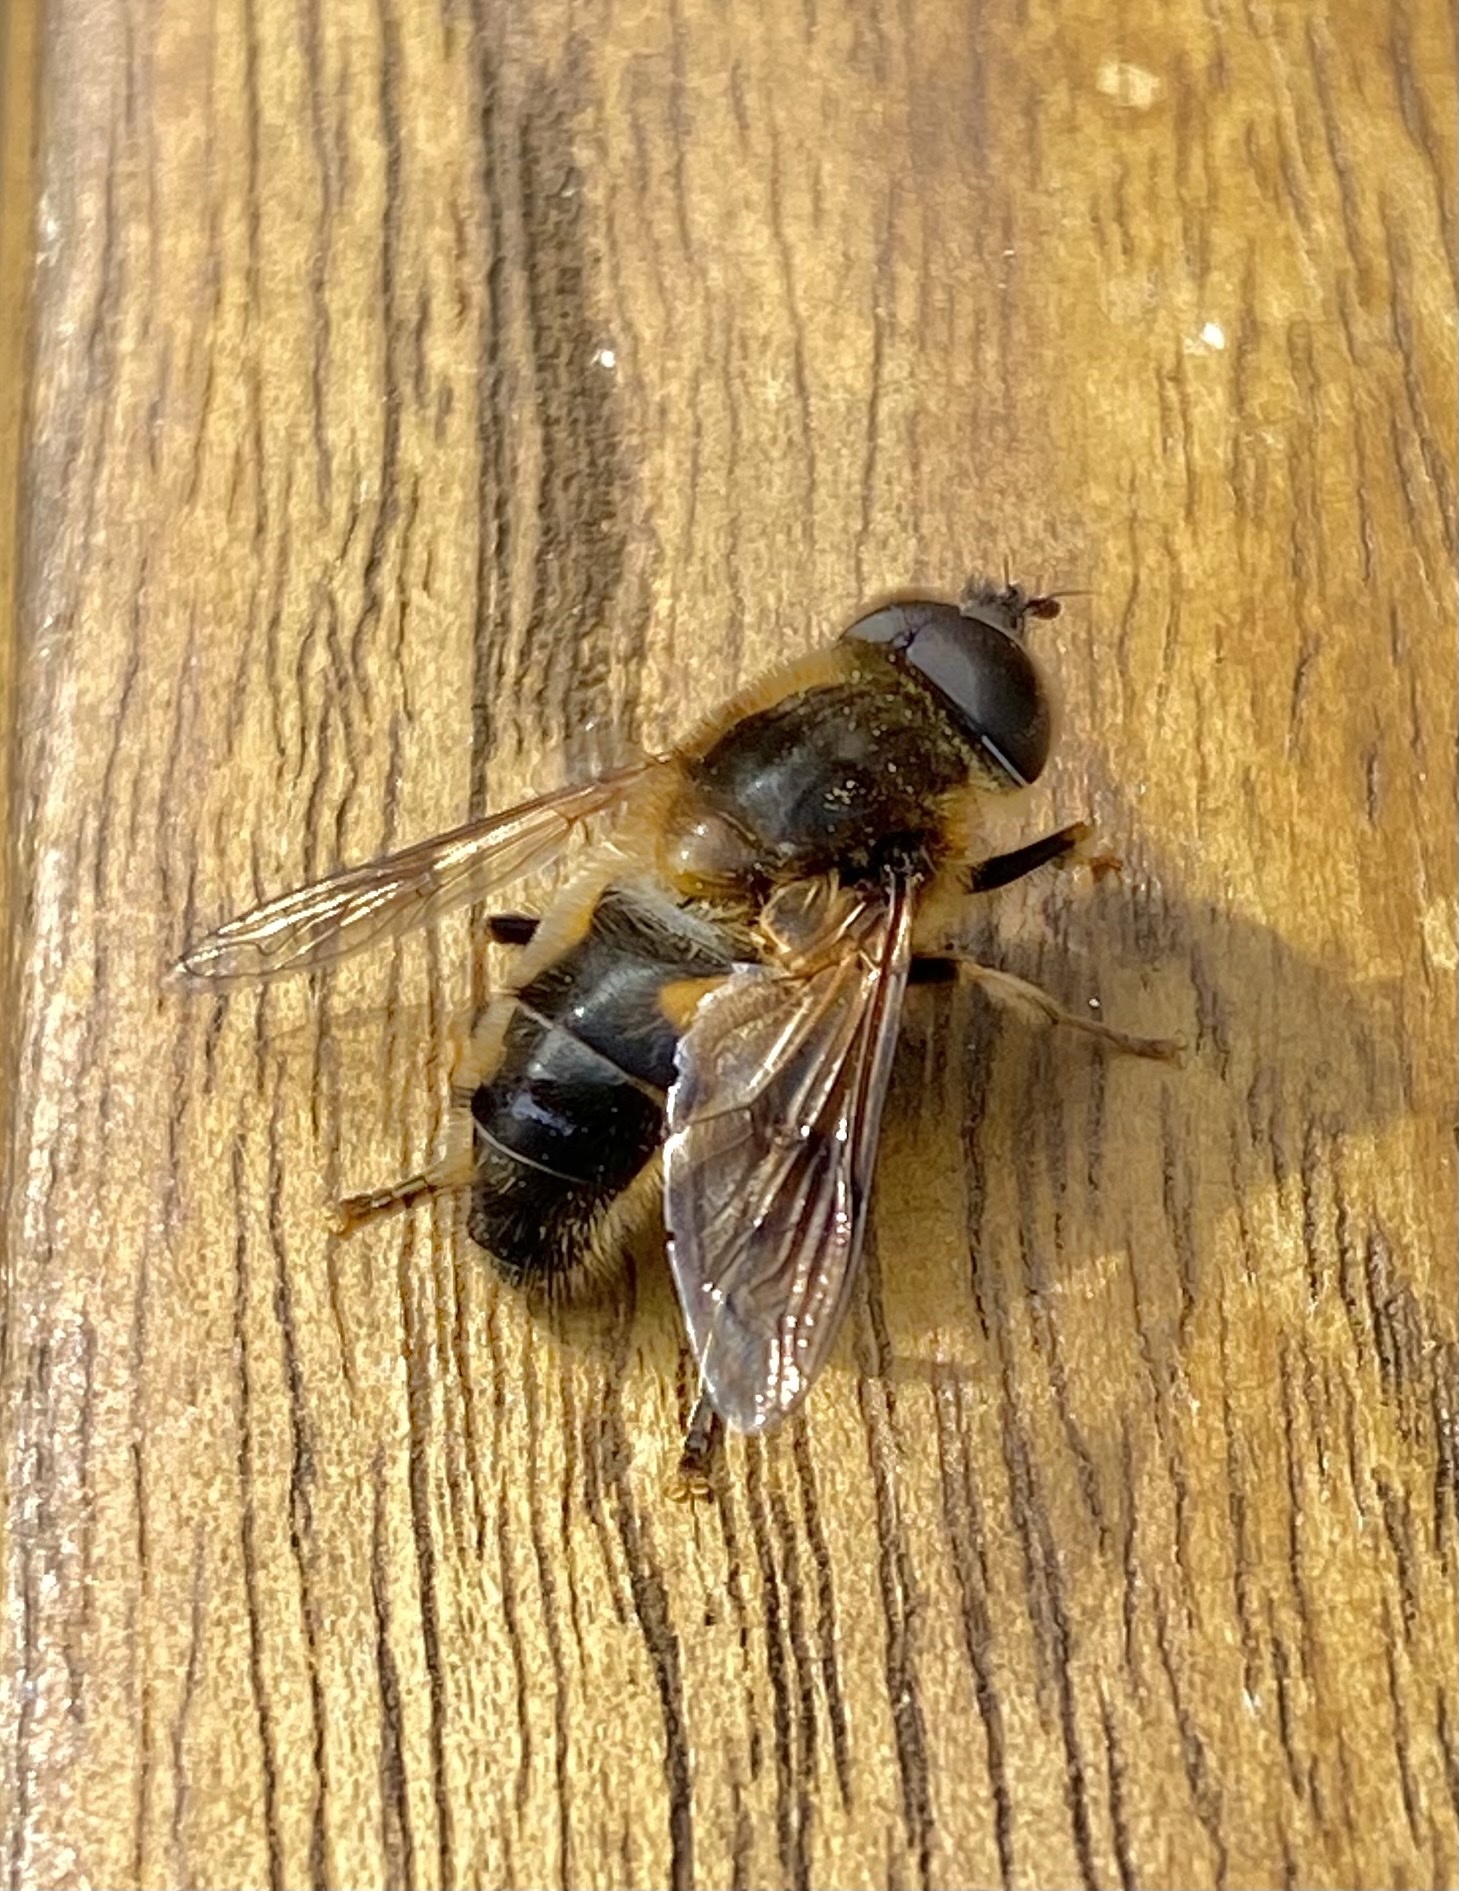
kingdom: Animalia
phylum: Arthropoda
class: Insecta
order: Diptera
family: Syrphidae
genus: Eristalis
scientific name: Eristalis pertinax
